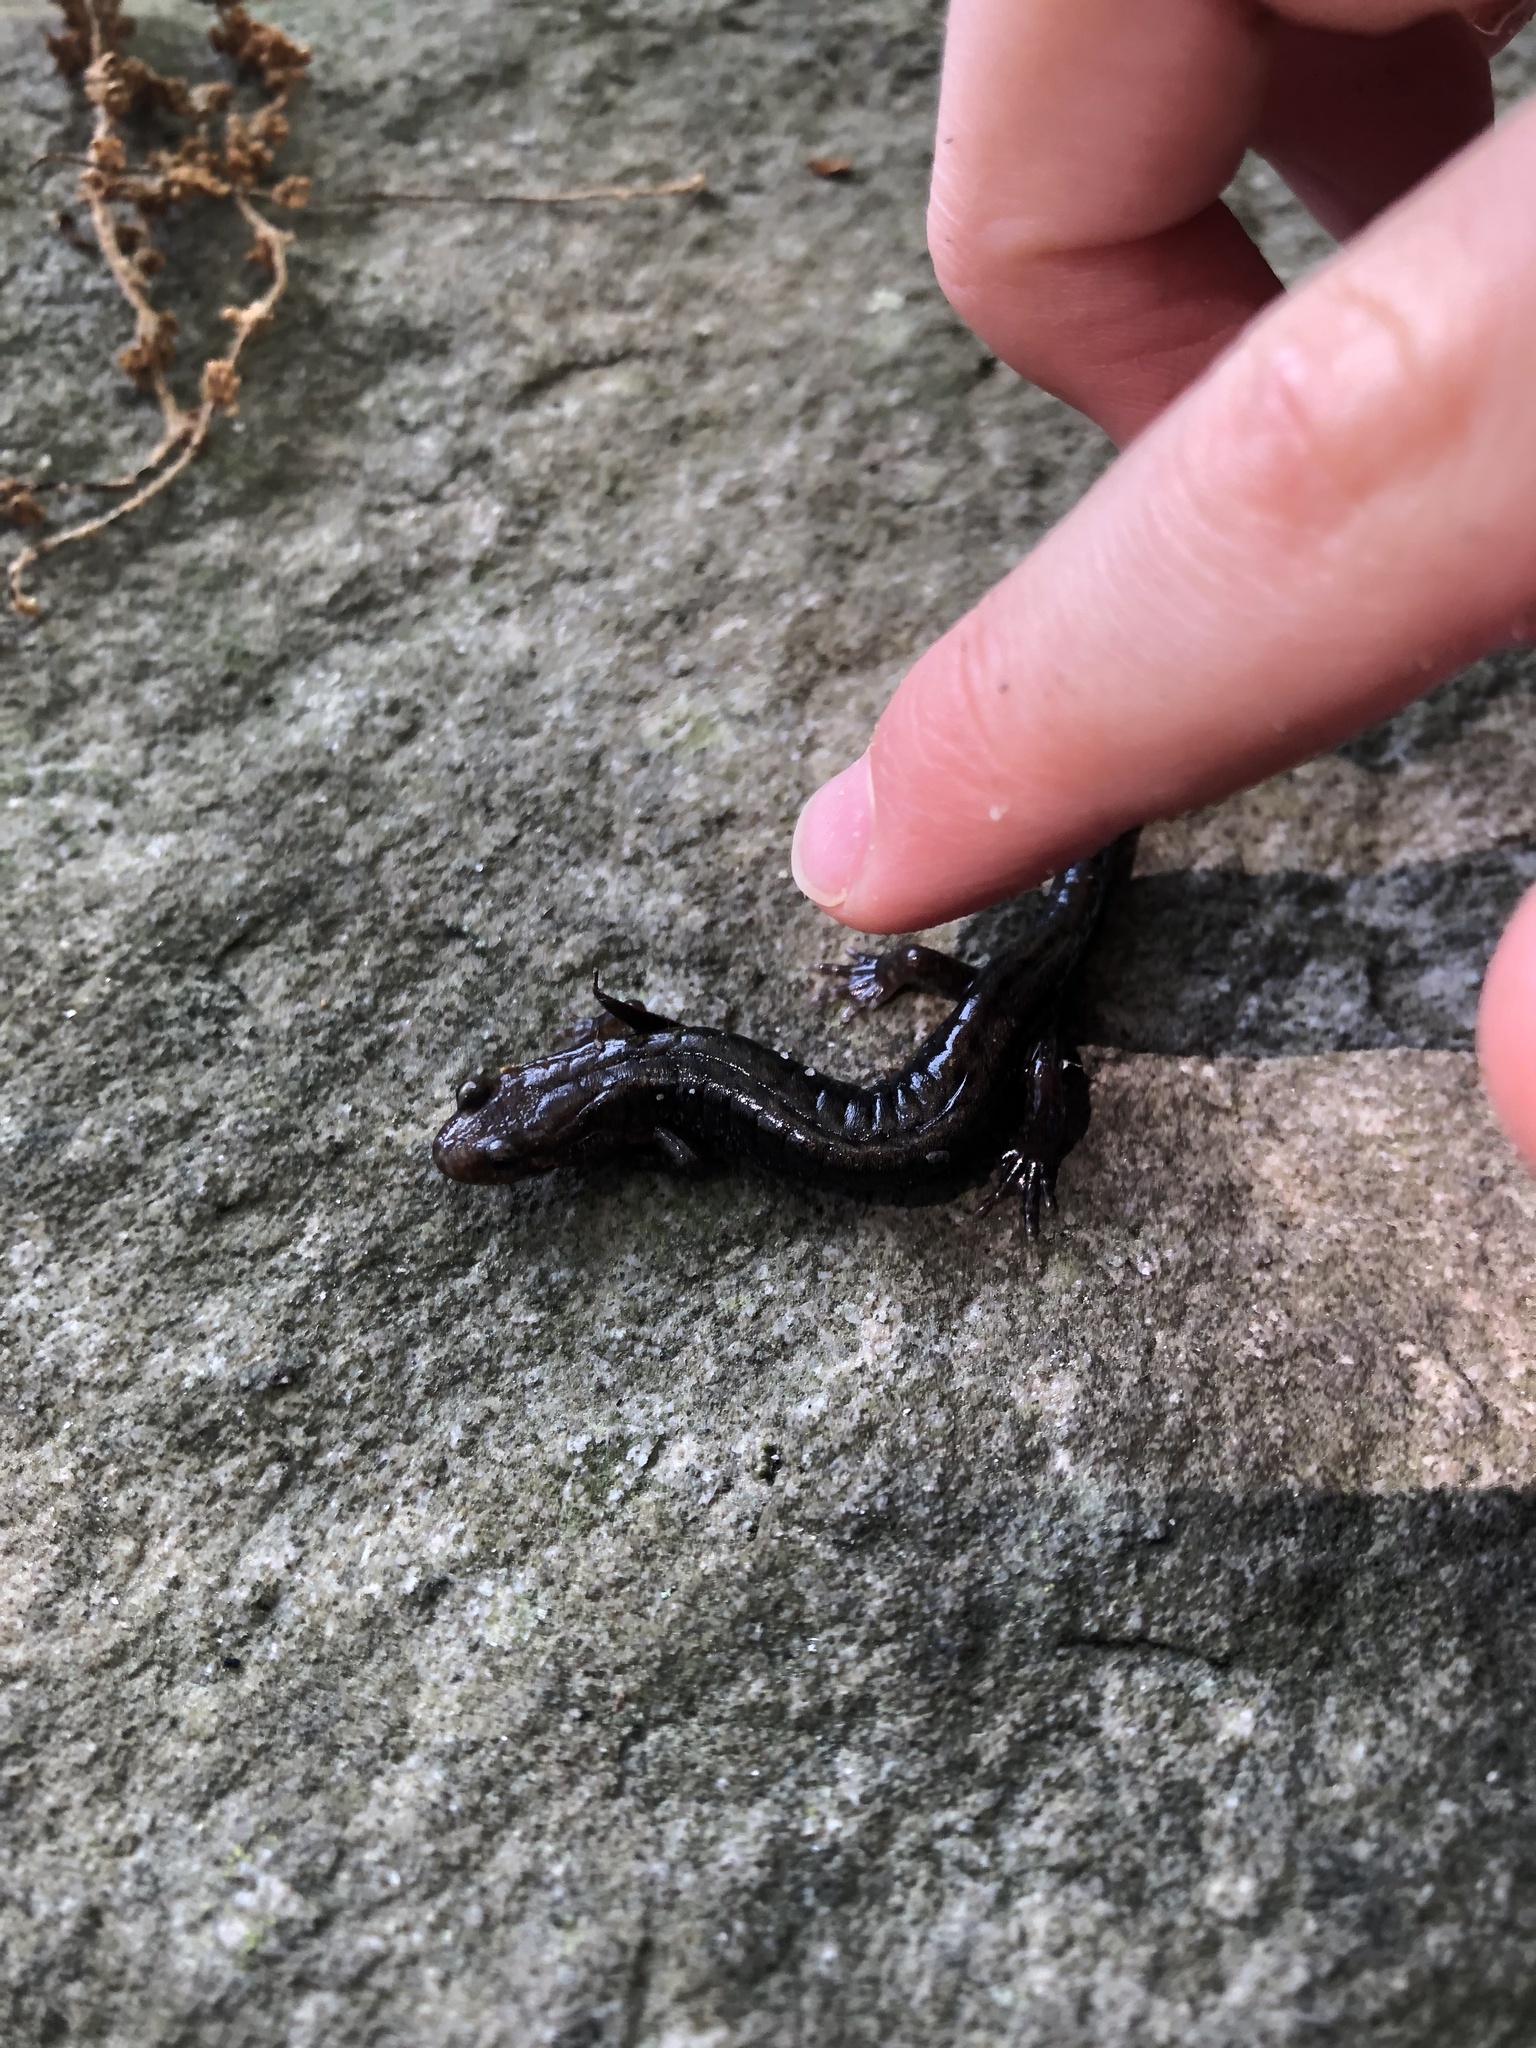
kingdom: Animalia
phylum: Chordata
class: Amphibia
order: Caudata
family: Plethodontidae
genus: Desmognathus
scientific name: Desmognathus ochrophaeus
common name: Allegheny mountain dusky salamander
